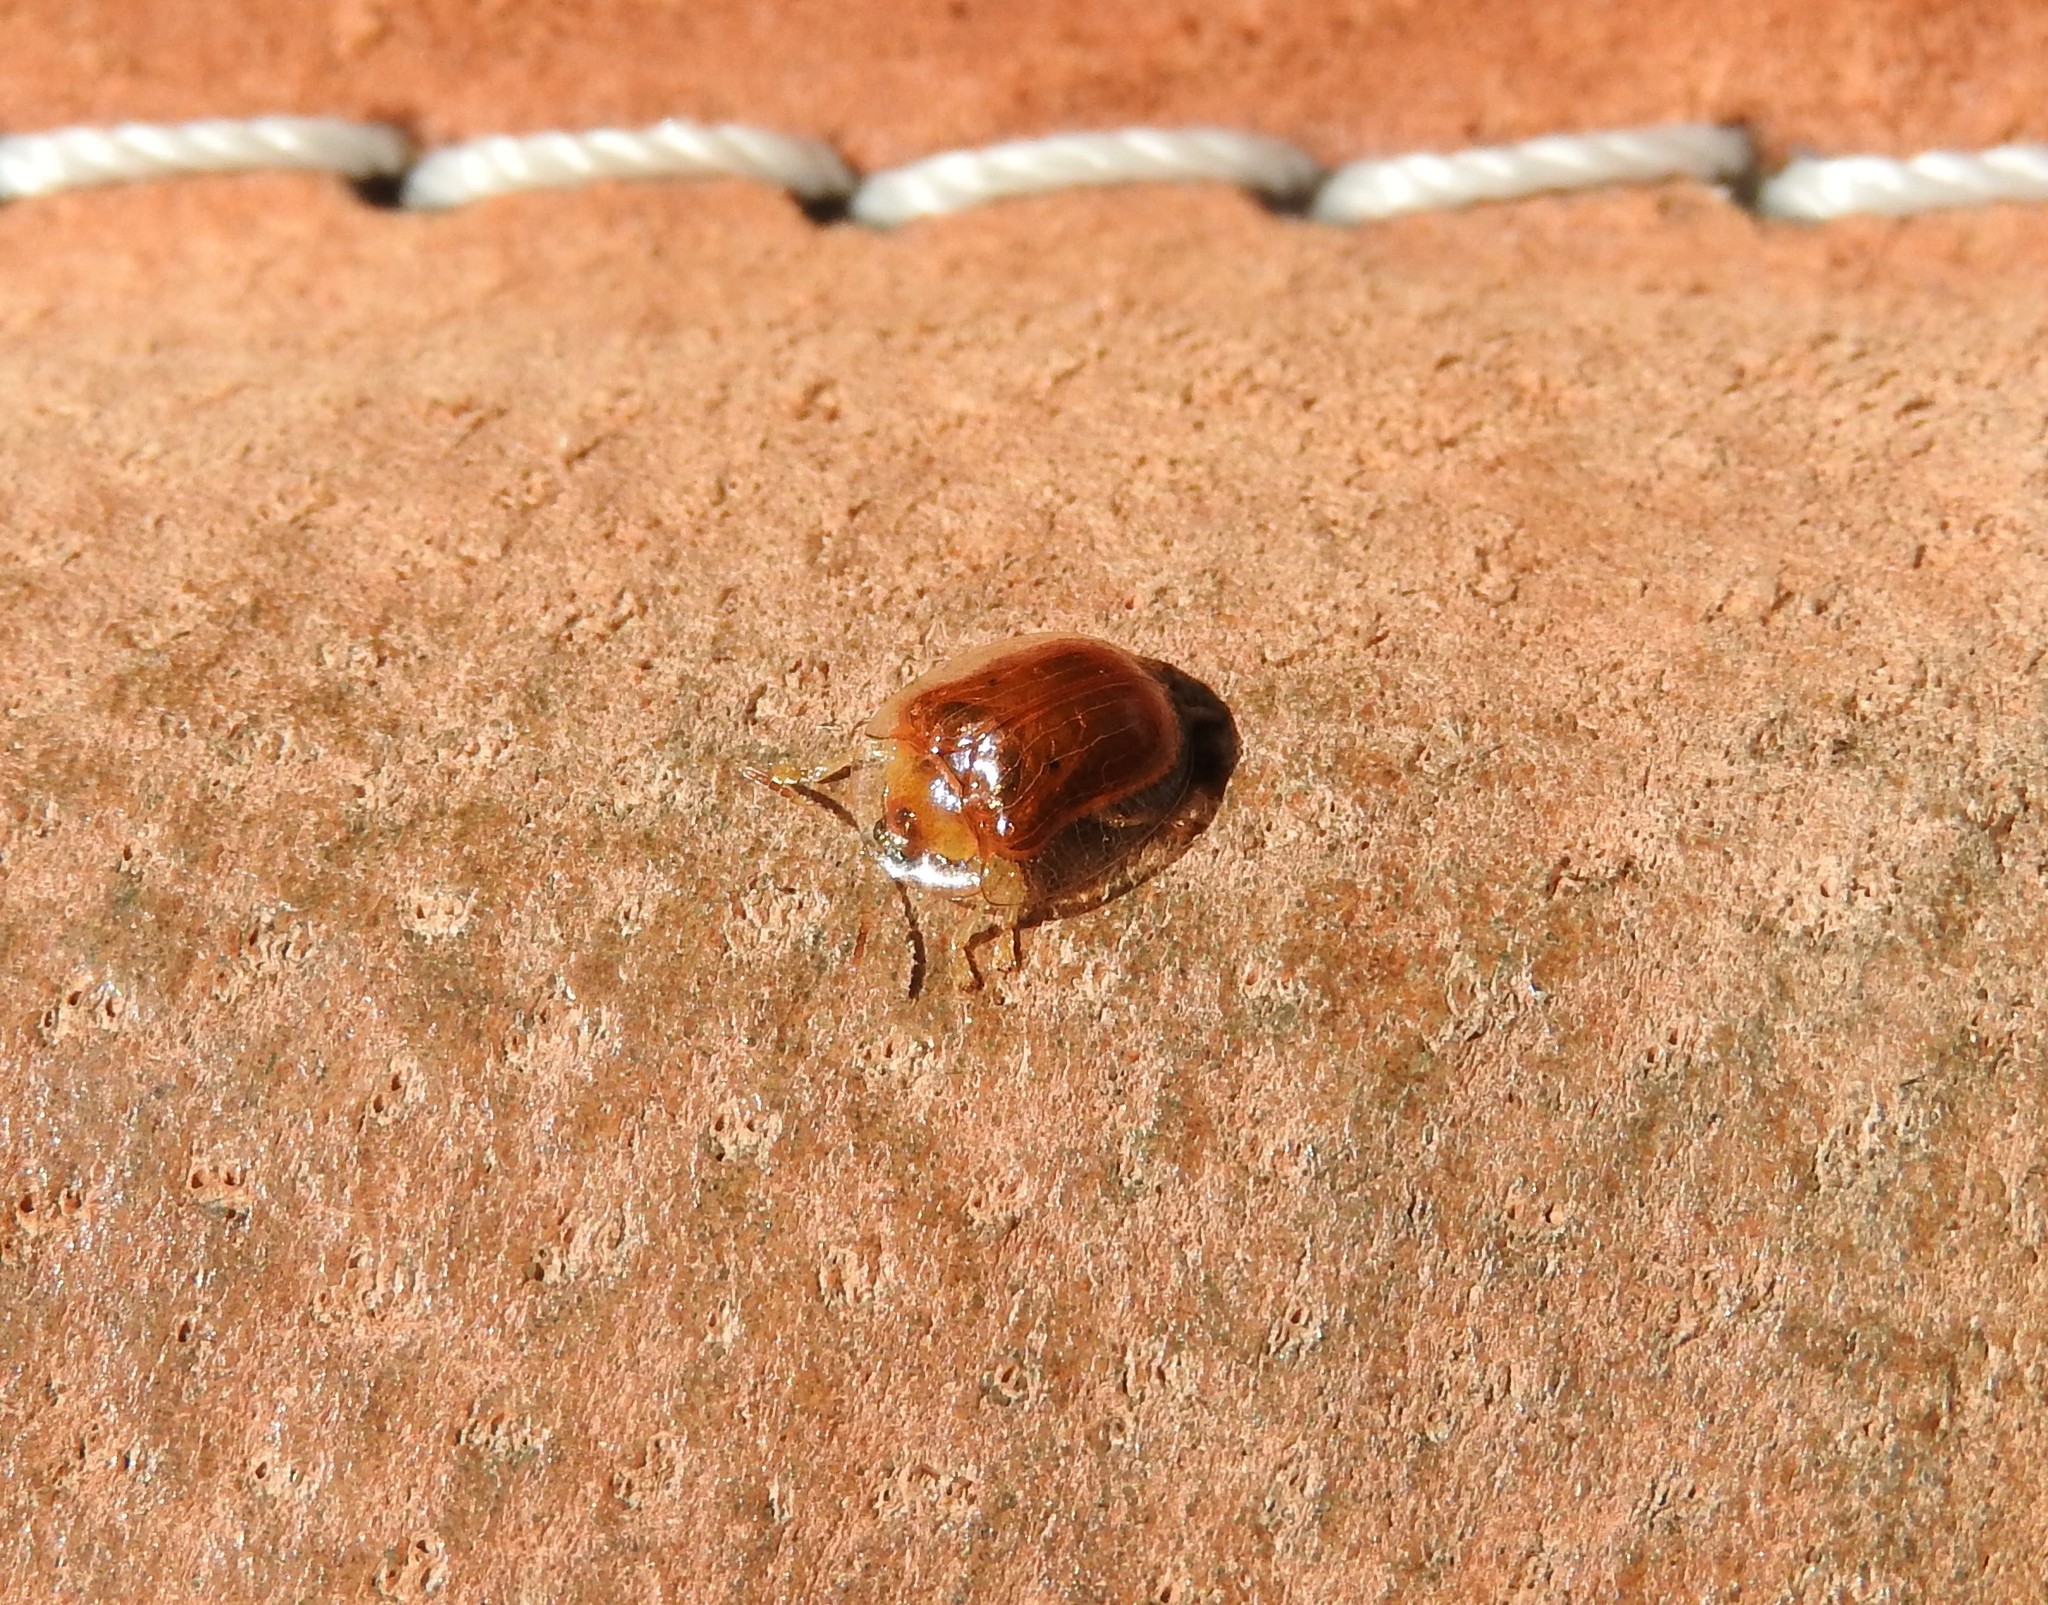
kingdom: Animalia
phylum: Arthropoda
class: Insecta
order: Coleoptera
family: Chrysomelidae
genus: Charidotella
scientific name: Charidotella sexpunctata
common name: Golden tortoise beetle
